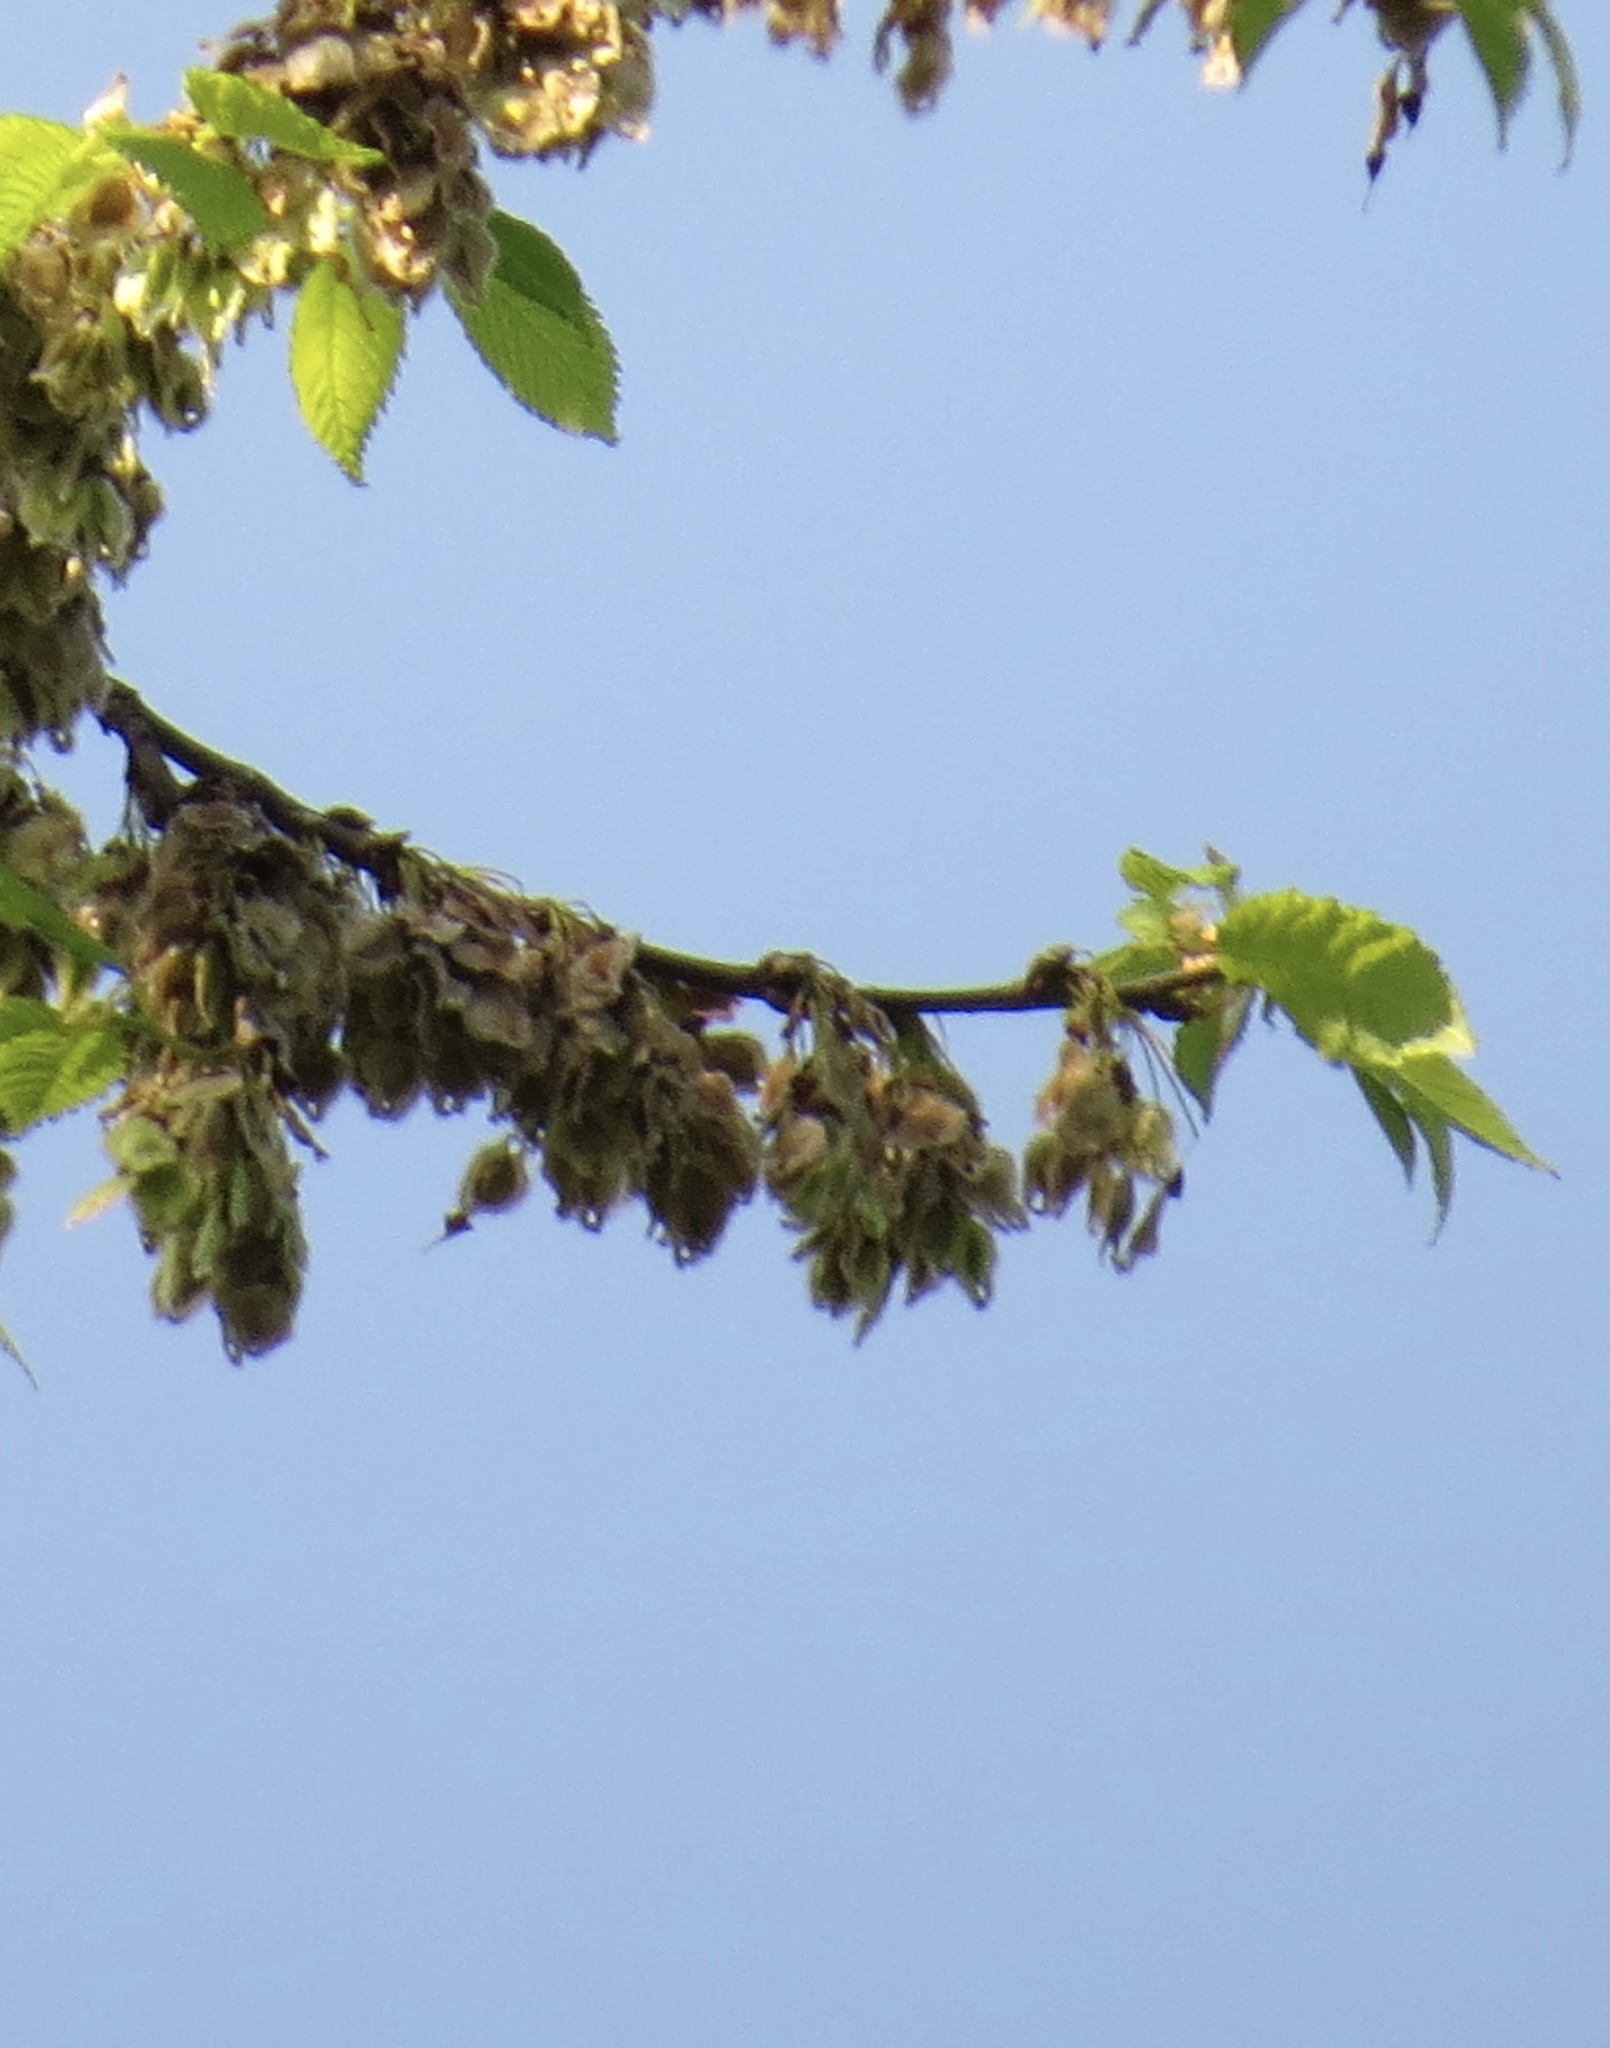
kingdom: Animalia
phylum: Chordata
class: Mammalia
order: Rodentia
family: Sciuridae
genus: Sciurus
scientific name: Sciurus carolinensis
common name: Eastern gray squirrel
